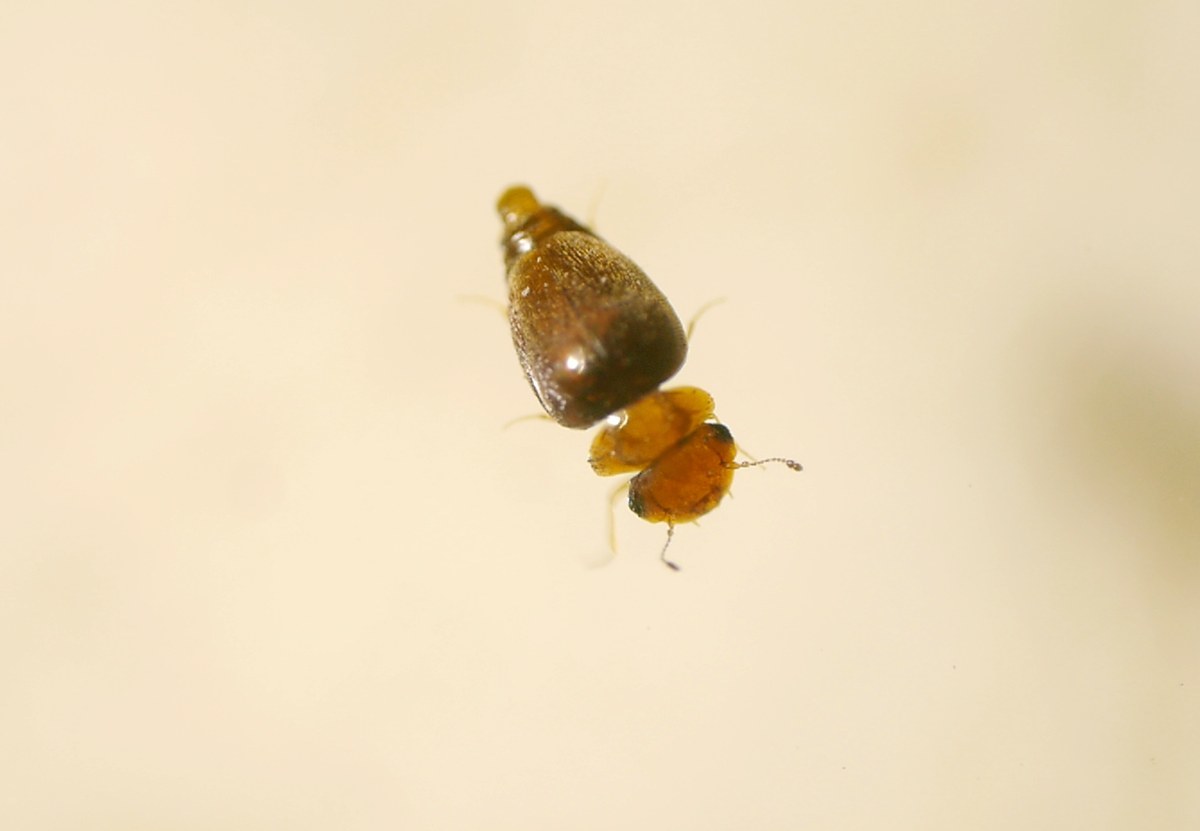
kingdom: Animalia
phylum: Arthropoda
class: Insecta
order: Coleoptera
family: Clambidae
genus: Calyptomerus
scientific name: Calyptomerus dubius
